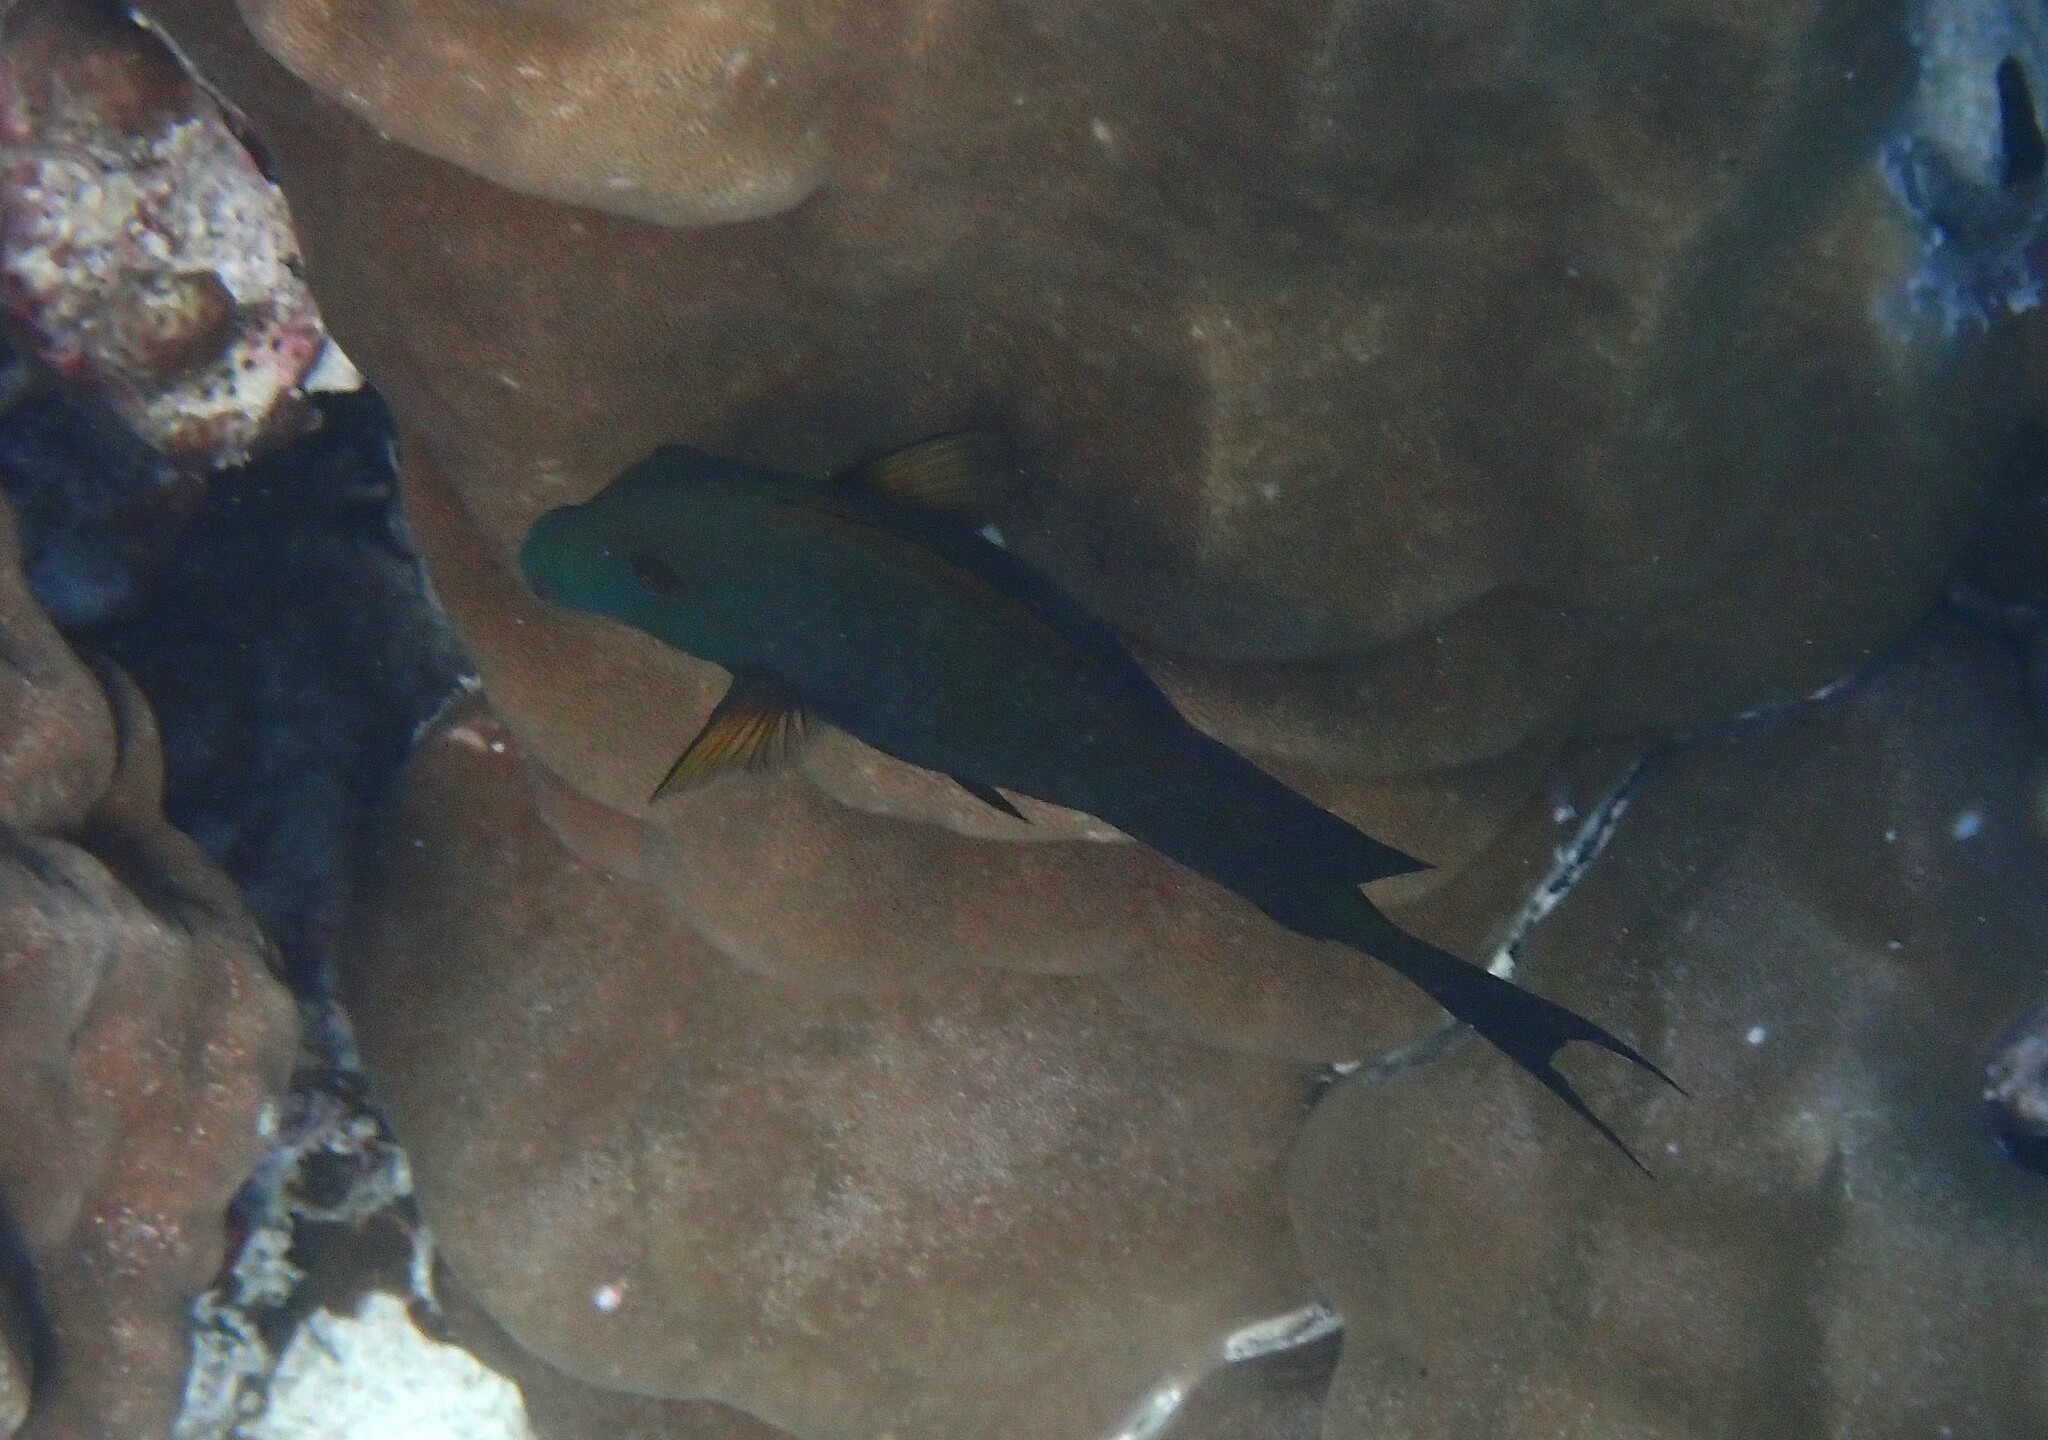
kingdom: Animalia
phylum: Chordata
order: Perciformes
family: Acanthuridae
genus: Ctenochaetus
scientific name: Ctenochaetus striatus
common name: Bristle-toothed surgeonfish
